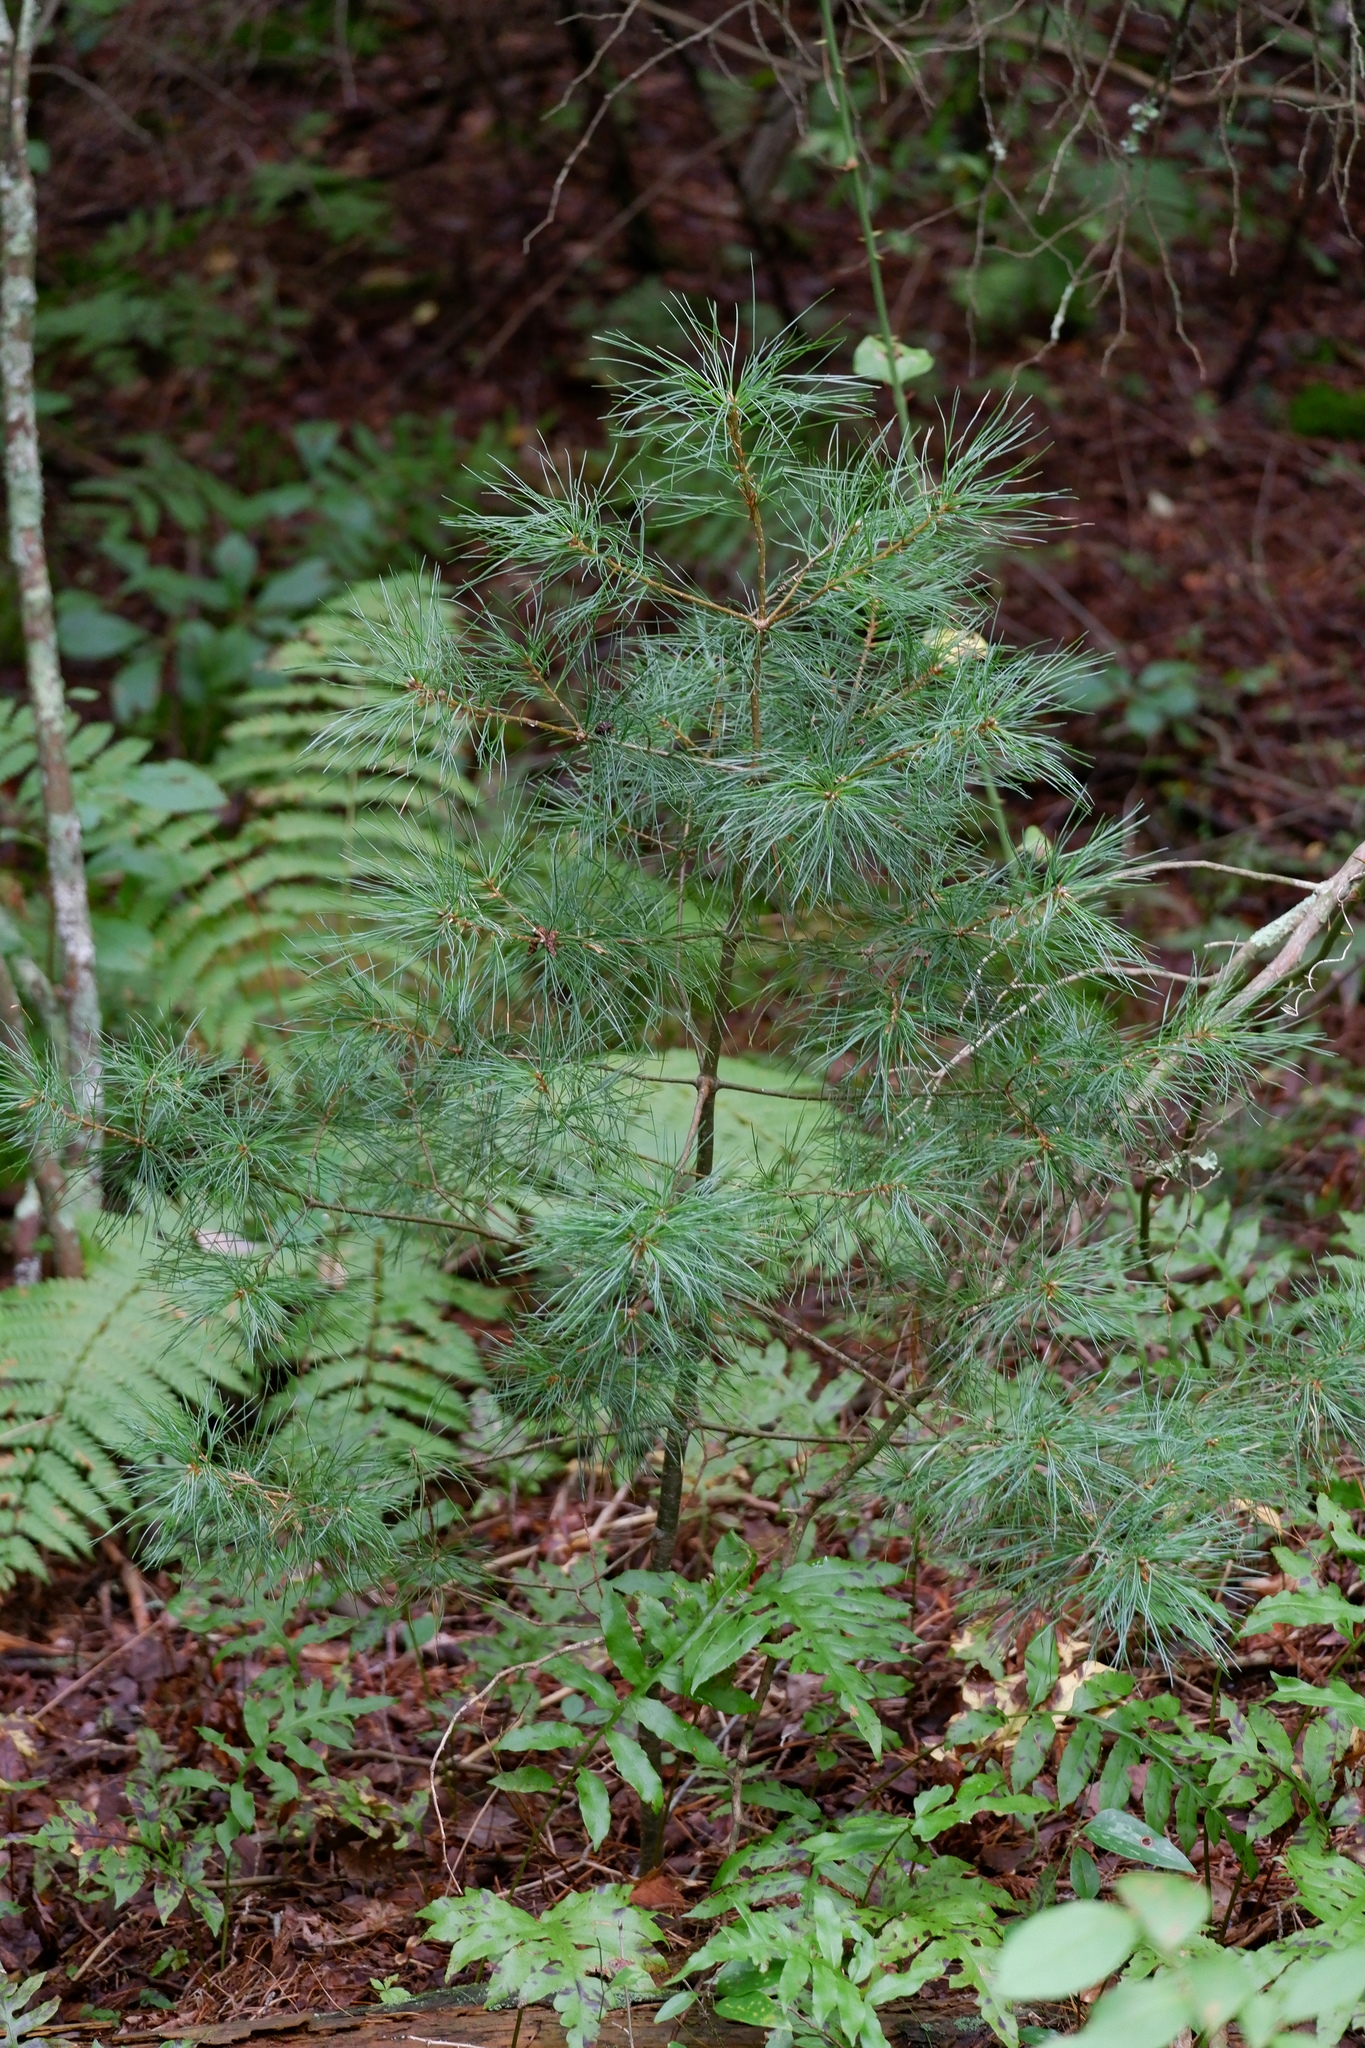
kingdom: Plantae
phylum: Tracheophyta
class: Pinopsida
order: Pinales
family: Pinaceae
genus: Pinus
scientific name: Pinus strobus
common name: Weymouth pine
